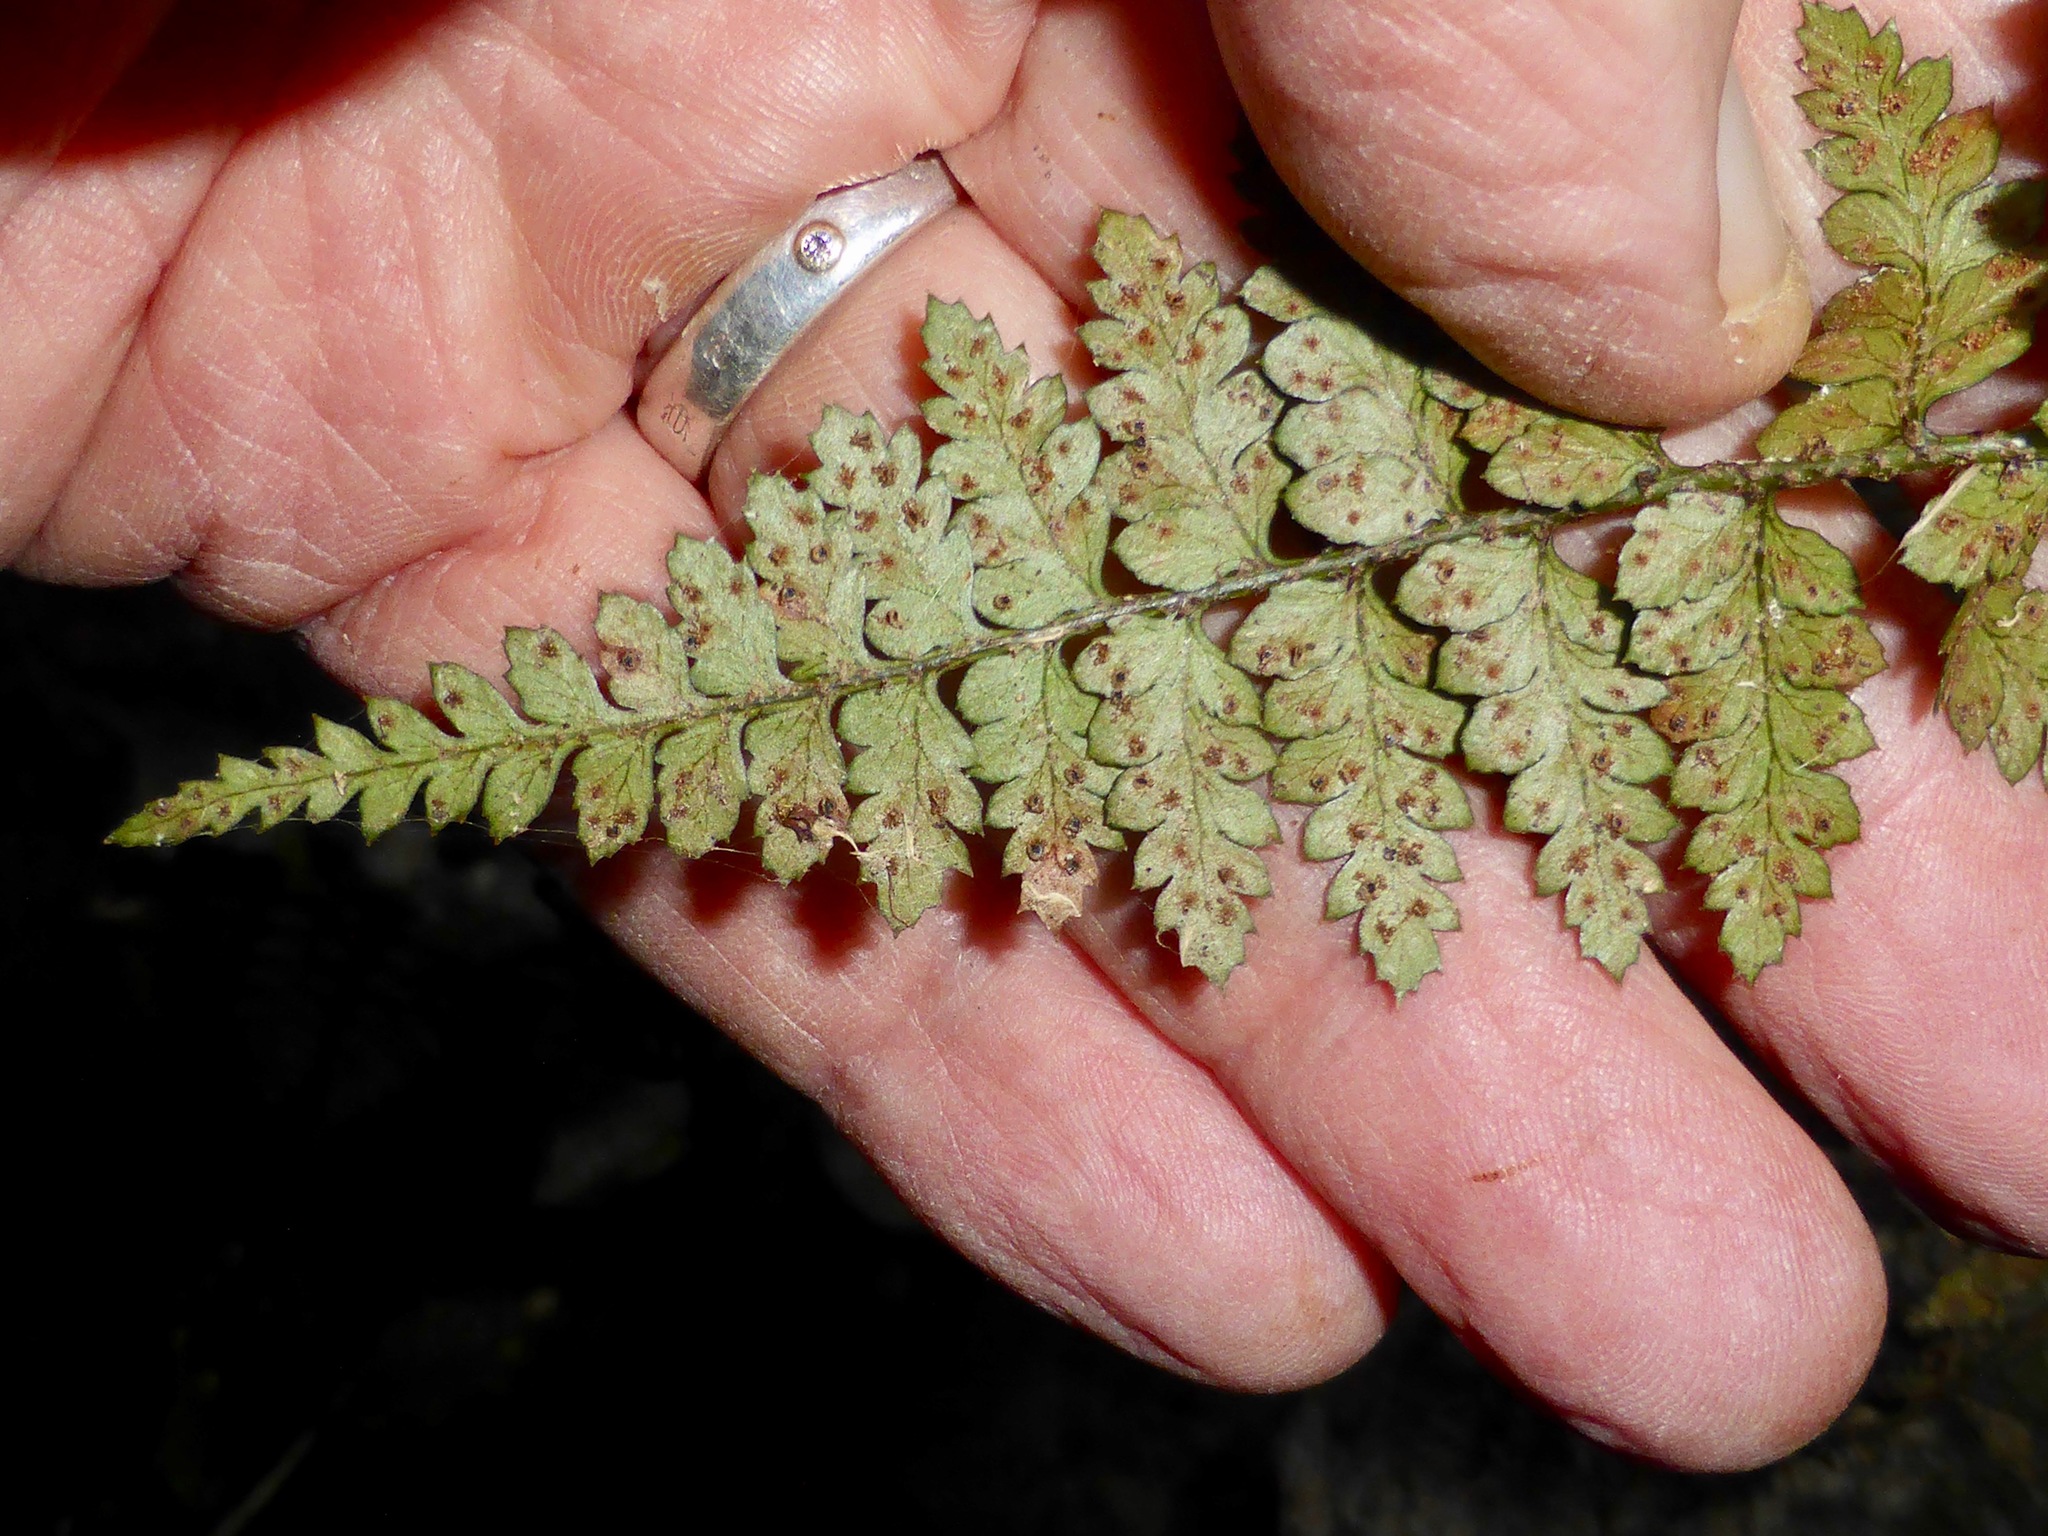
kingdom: Plantae
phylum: Tracheophyta
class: Polypodiopsida
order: Polypodiales
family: Dryopteridaceae
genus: Polystichum
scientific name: Polystichum oculatum
